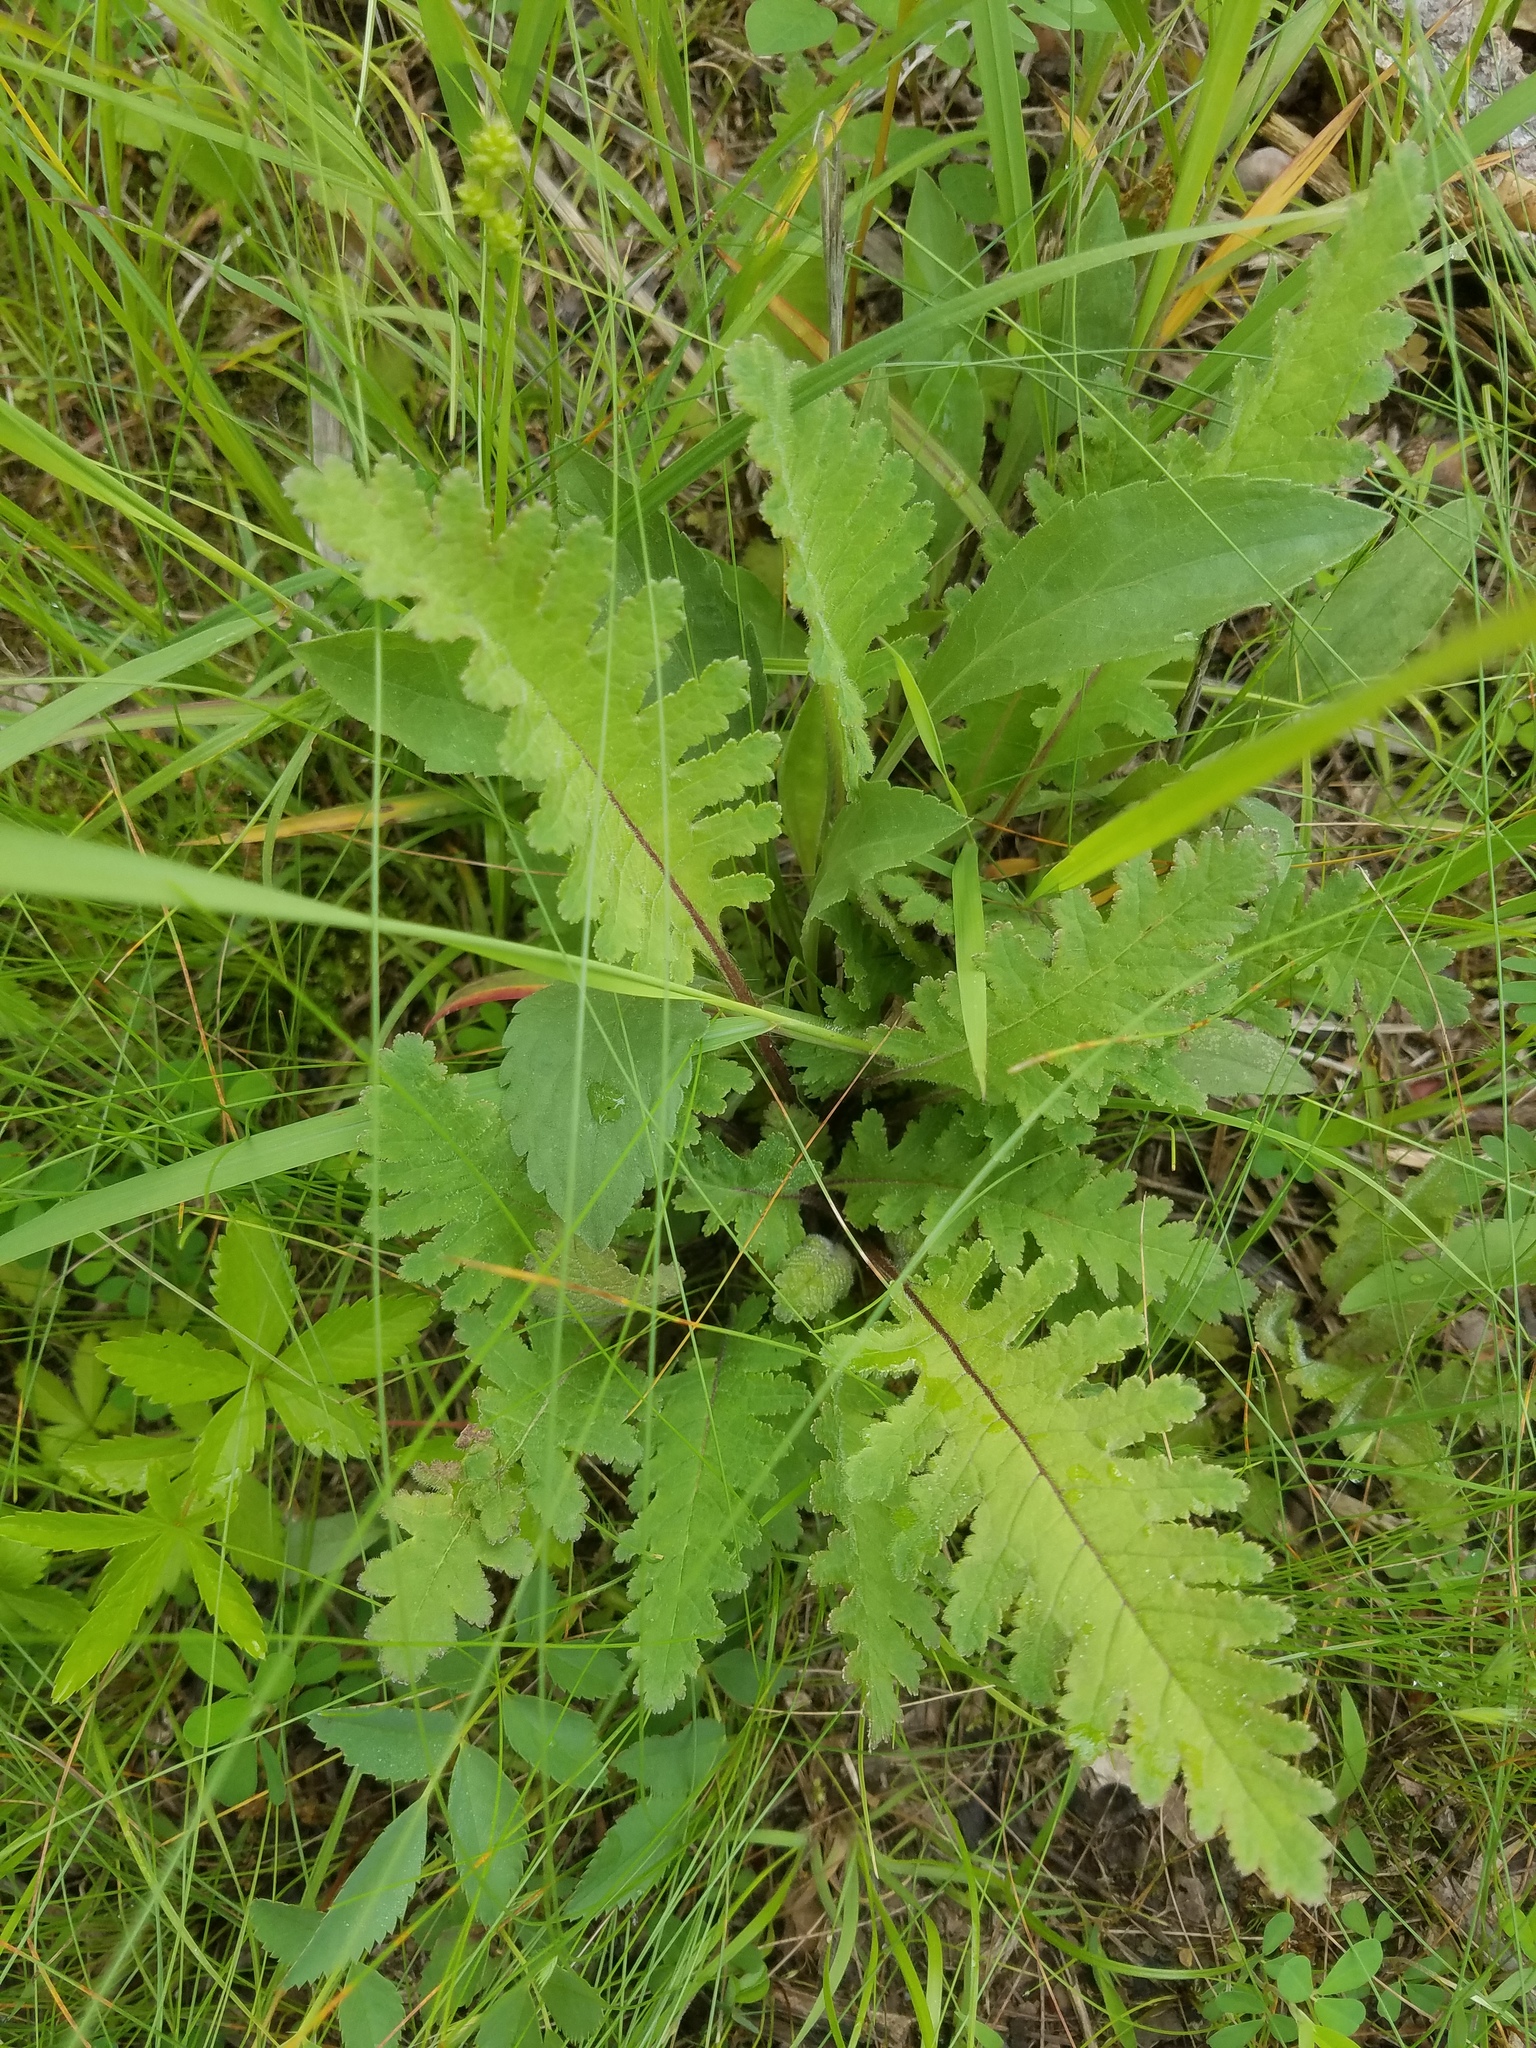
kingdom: Plantae
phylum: Tracheophyta
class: Magnoliopsida
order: Lamiales
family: Orobanchaceae
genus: Pedicularis
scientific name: Pedicularis canadensis
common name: Early lousewort
